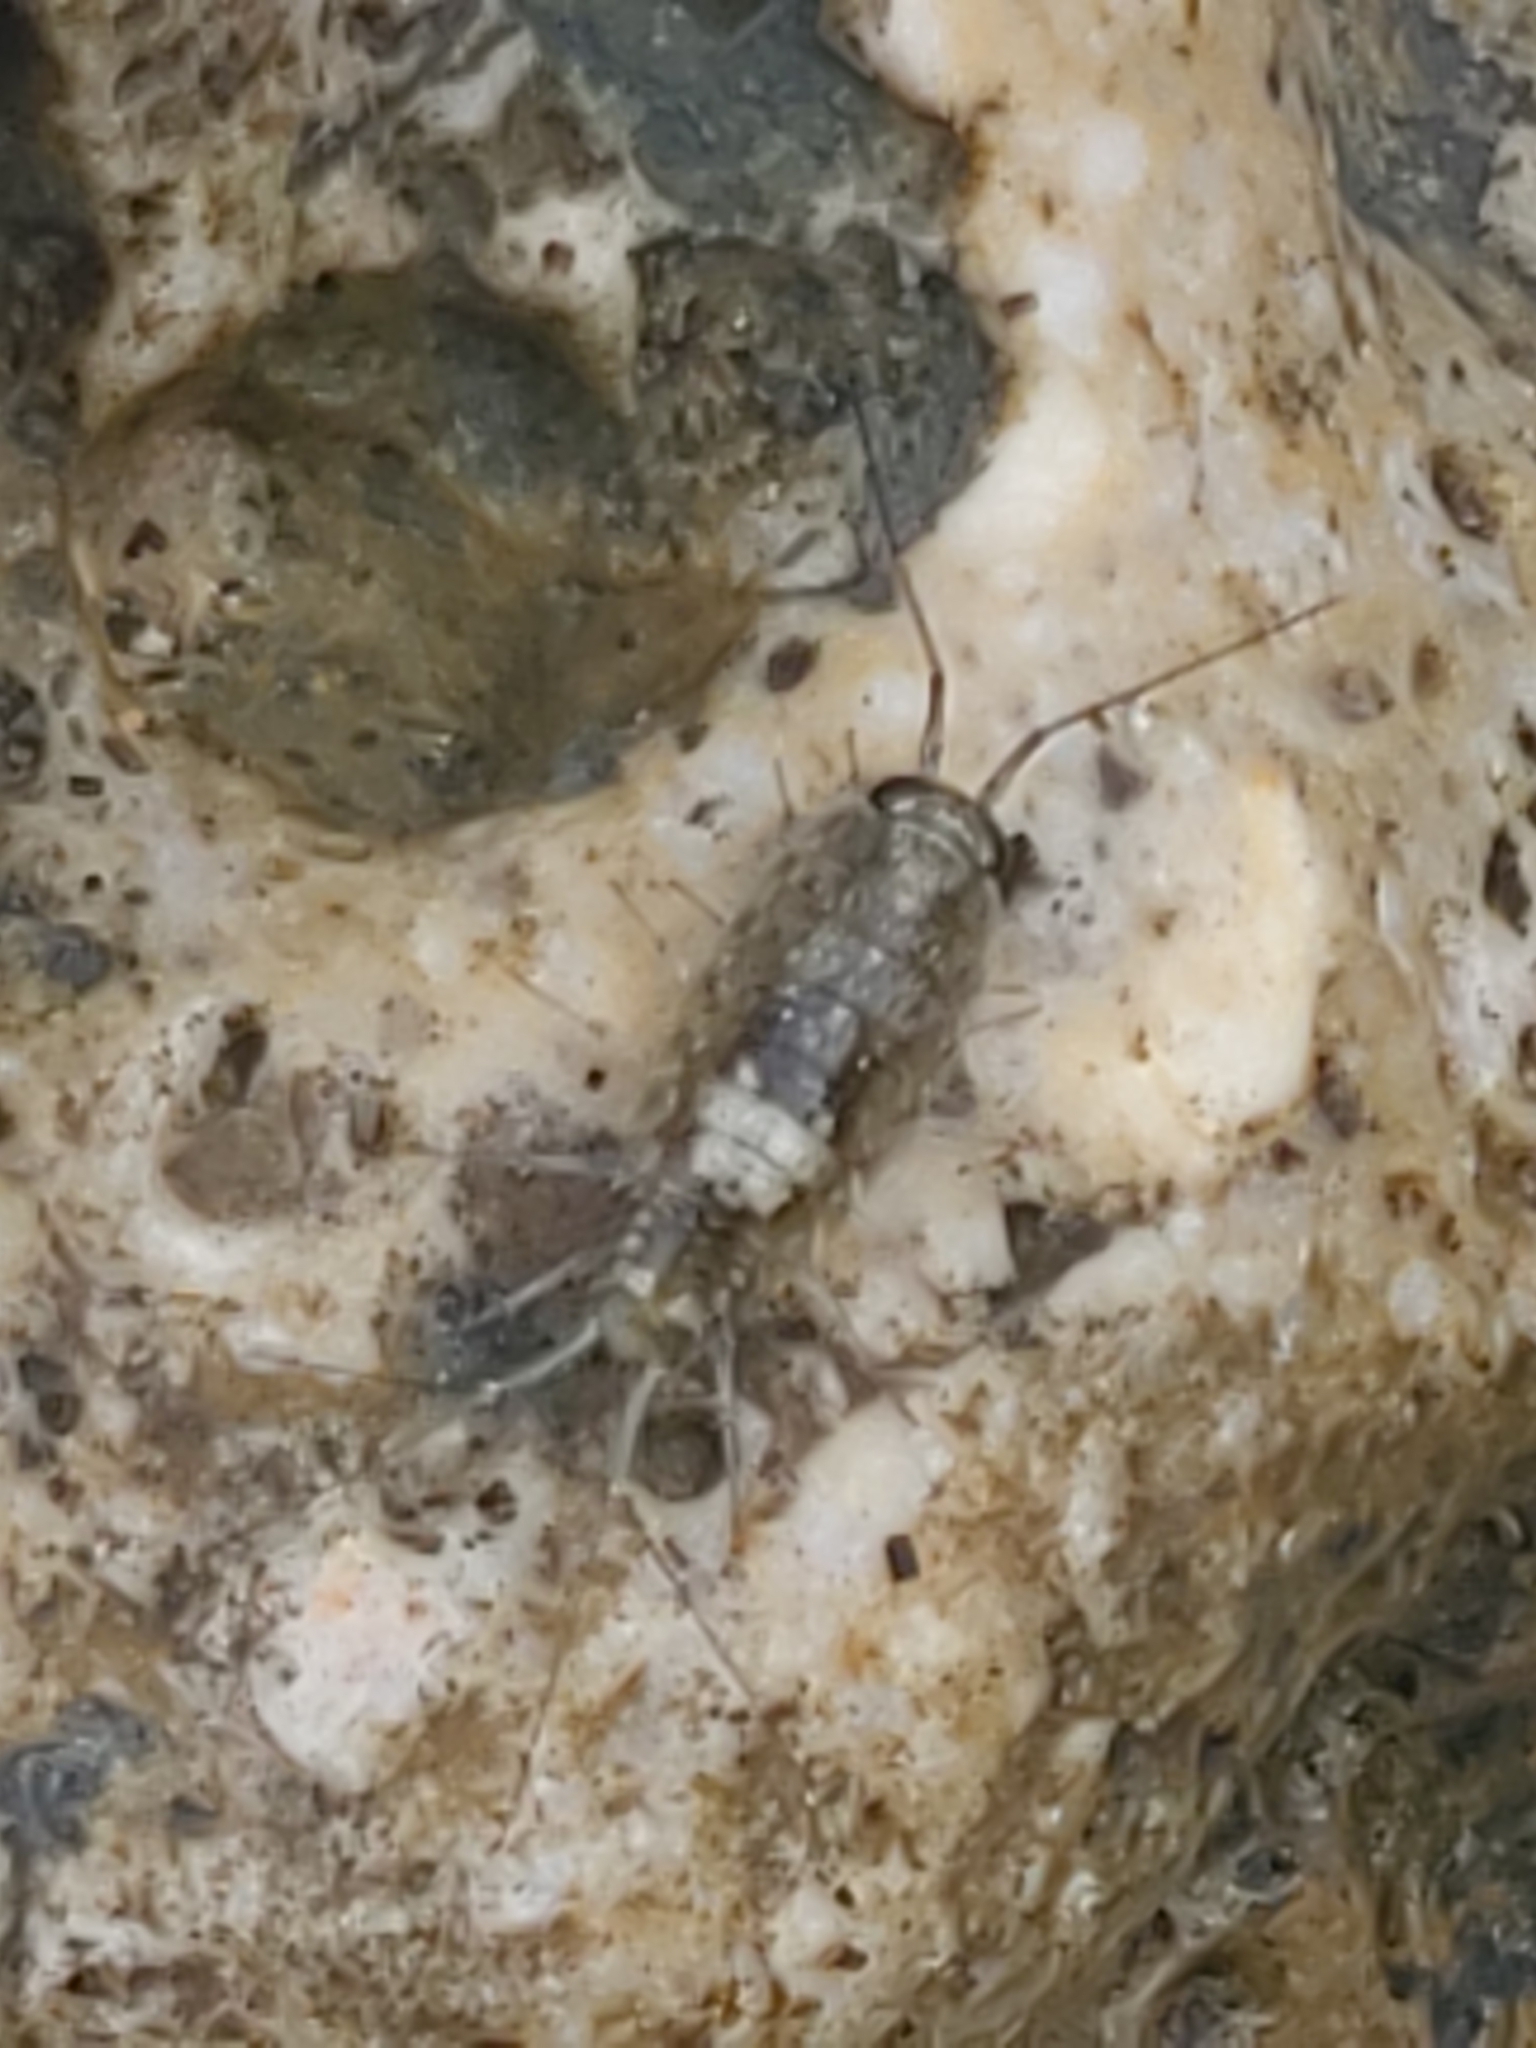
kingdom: Animalia
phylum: Arthropoda
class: Malacostraca
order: Isopoda
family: Ligiidae
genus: Ligia
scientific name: Ligia italica
